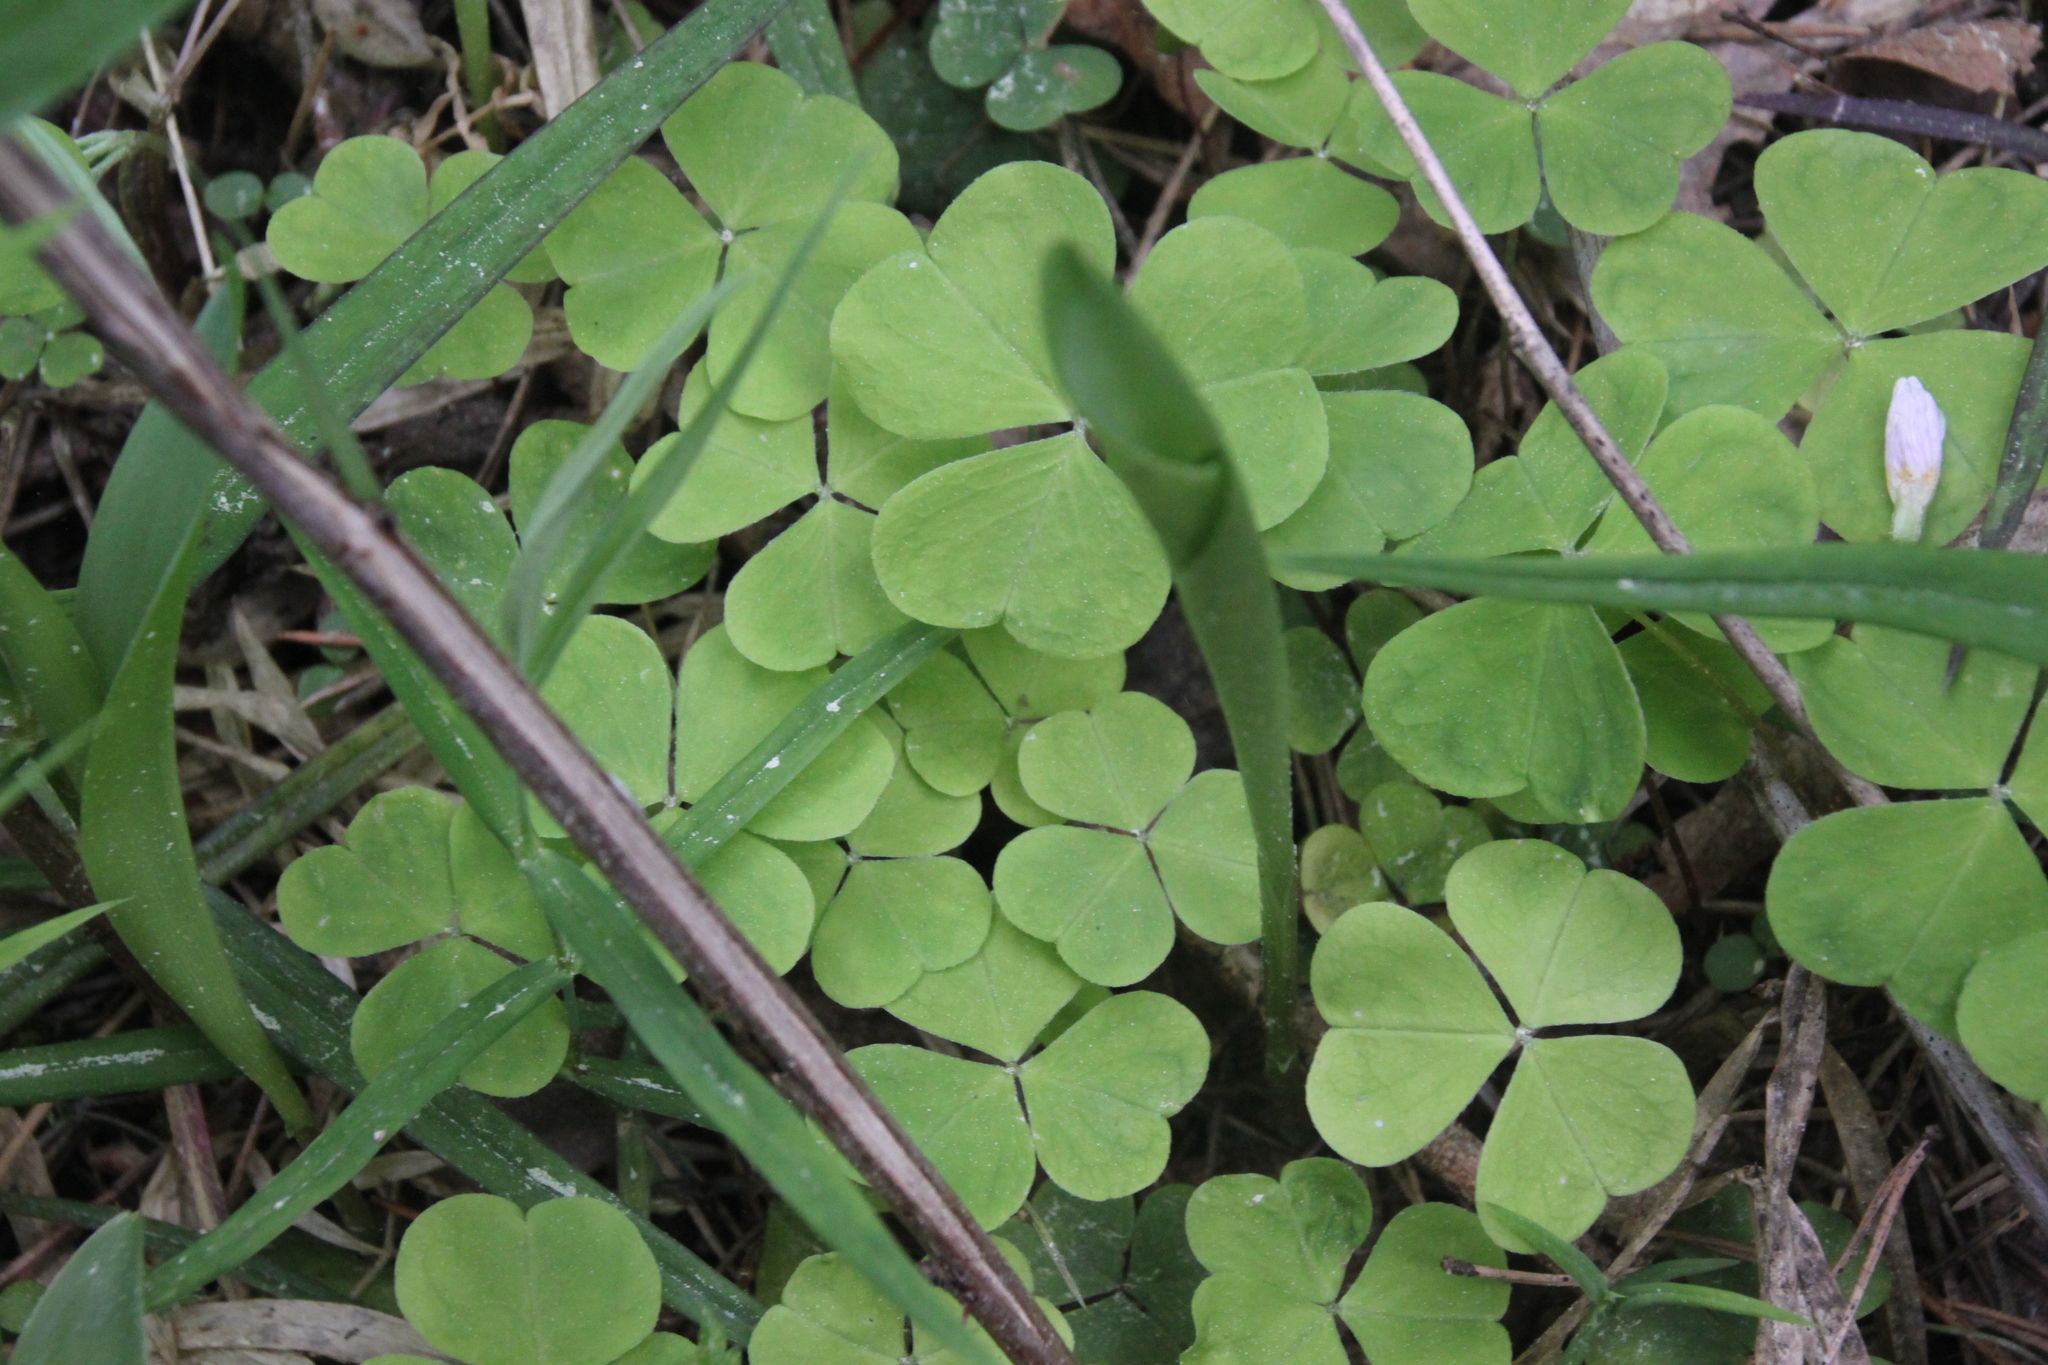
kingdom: Plantae
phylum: Tracheophyta
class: Magnoliopsida
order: Oxalidales
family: Oxalidaceae
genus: Oxalis
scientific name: Oxalis acetosella
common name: Wood-sorrel
